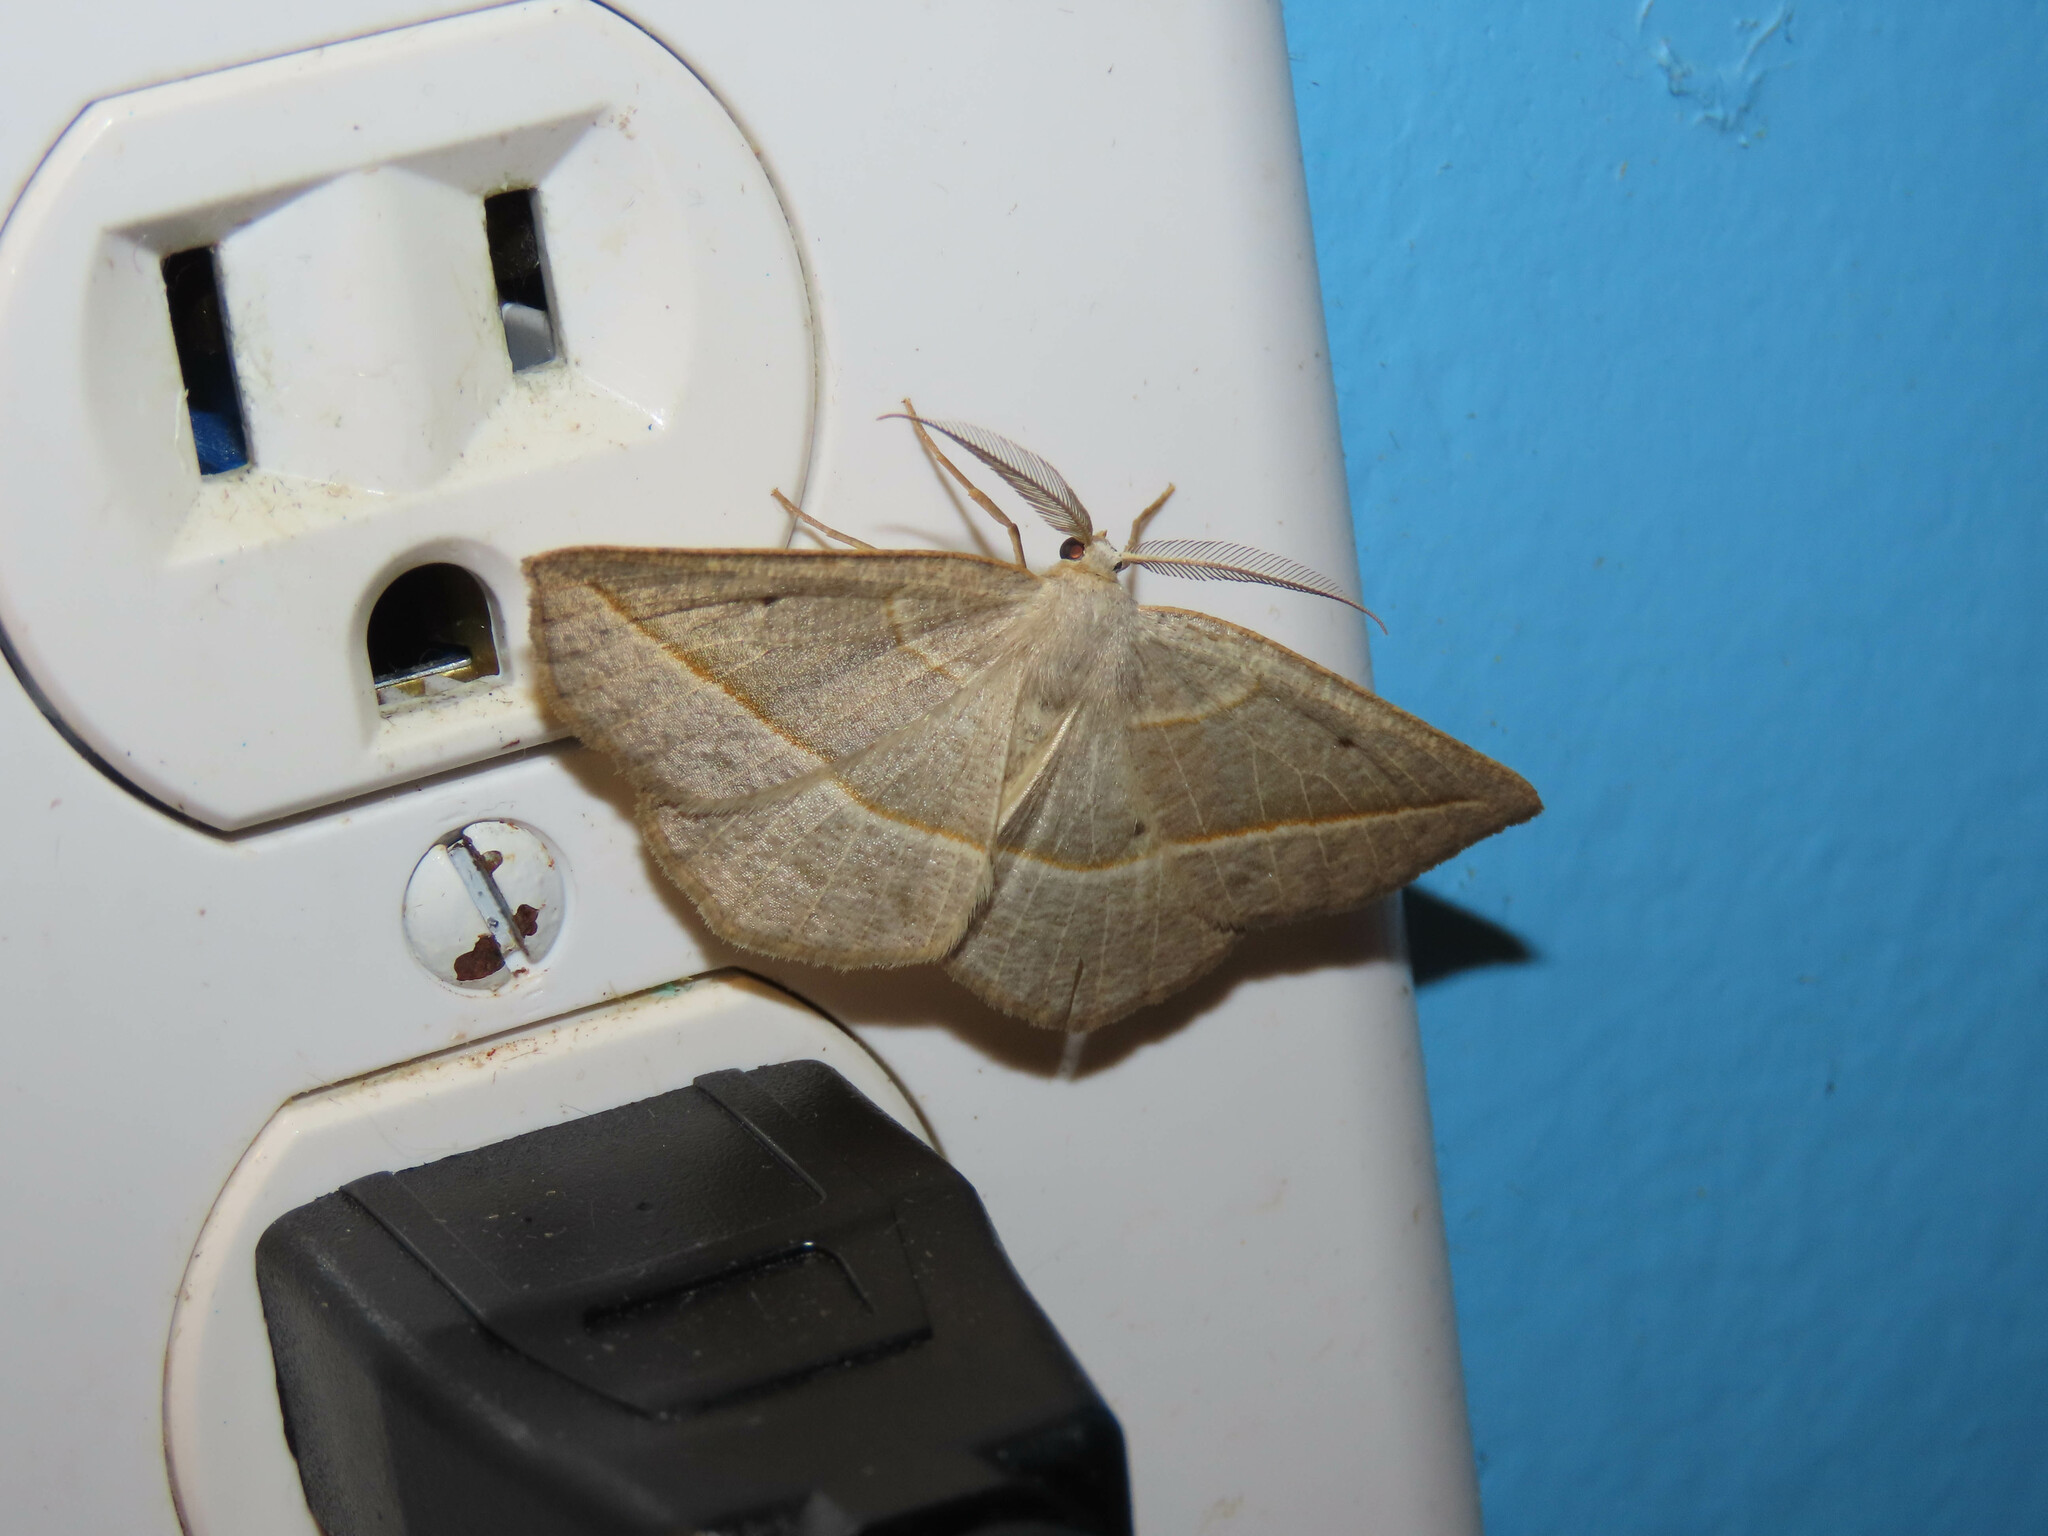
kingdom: Animalia
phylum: Arthropoda
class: Insecta
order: Lepidoptera
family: Geometridae
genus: Eusarca
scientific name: Eusarca confusaria
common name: Confused eusarca
